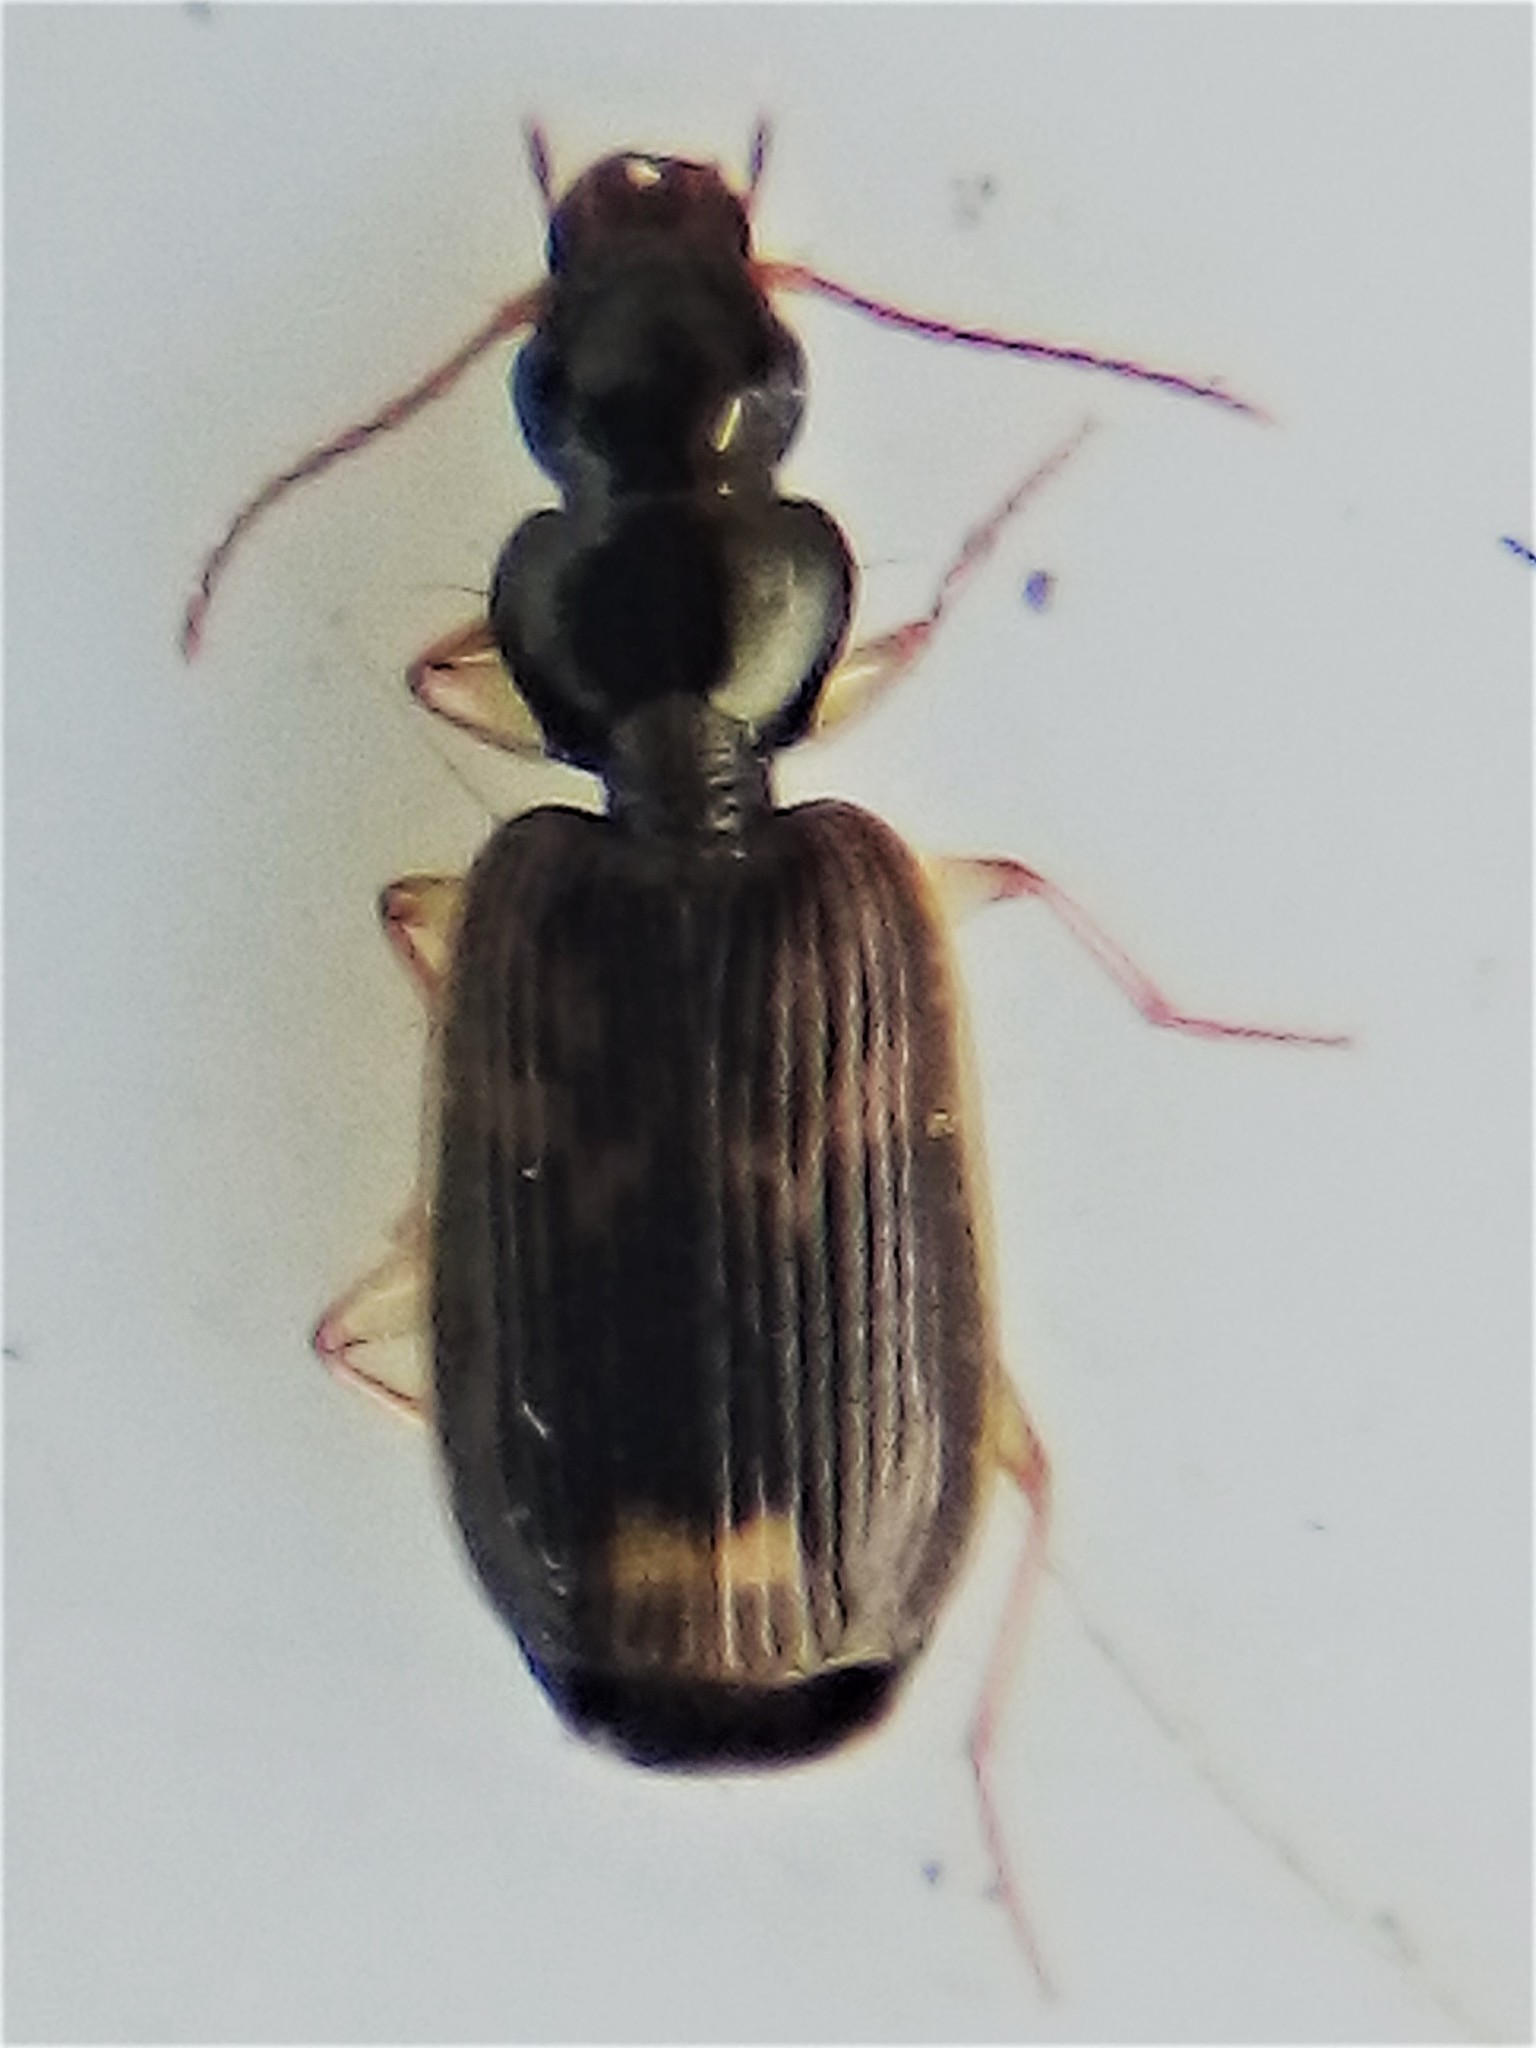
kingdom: Animalia
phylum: Arthropoda
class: Insecta
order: Coleoptera
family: Carabidae
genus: Anomotarus
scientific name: Anomotarus variegatus
